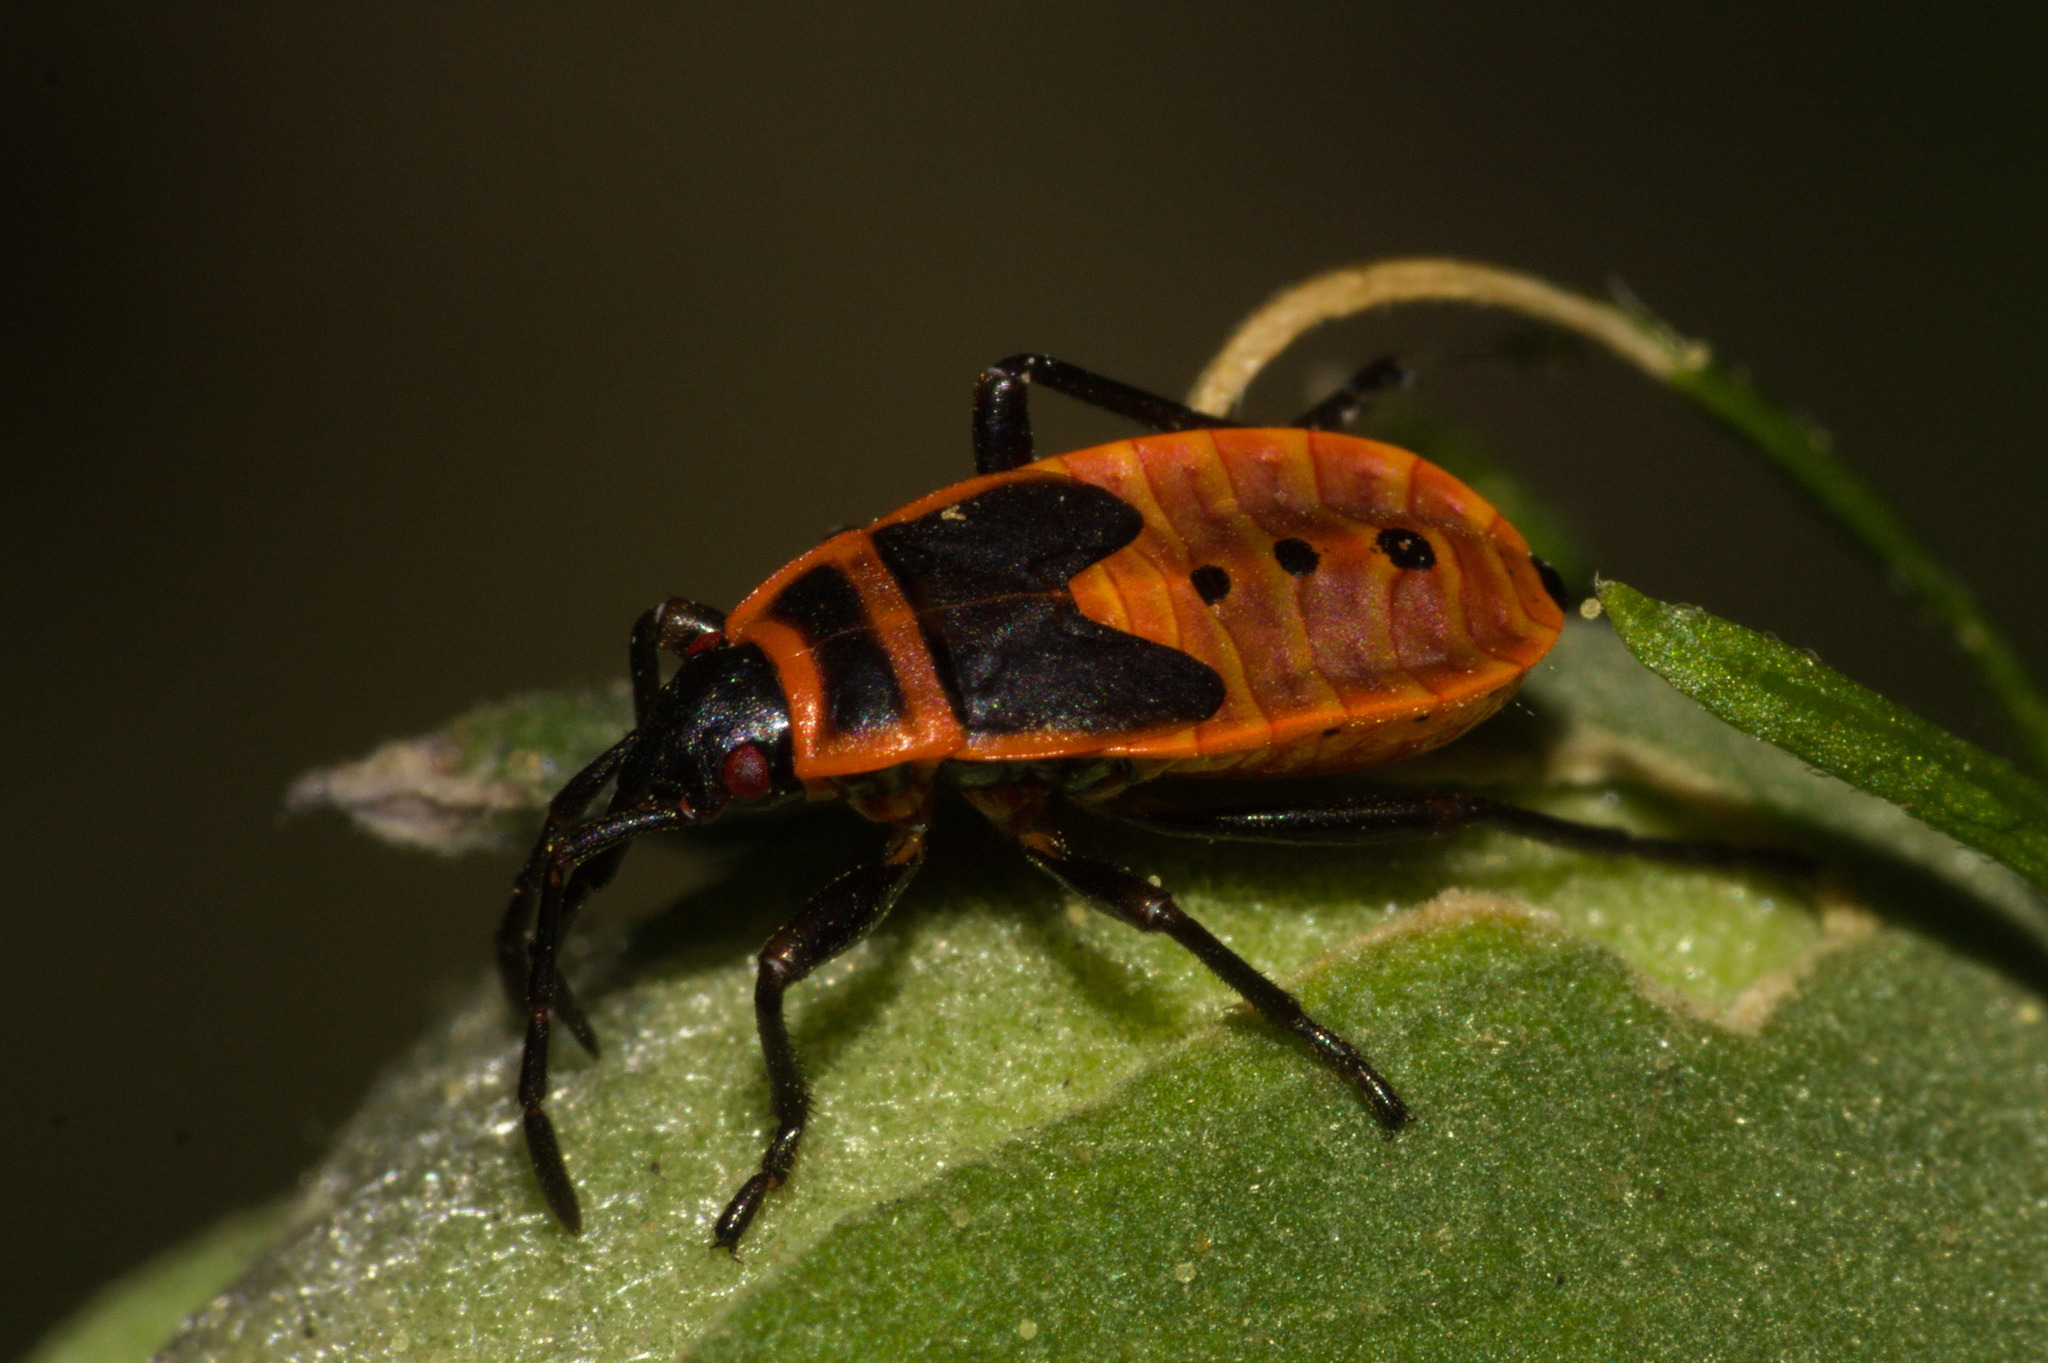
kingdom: Animalia
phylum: Arthropoda
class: Insecta
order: Hemiptera
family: Pyrrhocoridae
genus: Pyrrhocoris
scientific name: Pyrrhocoris apterus
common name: Firebug
